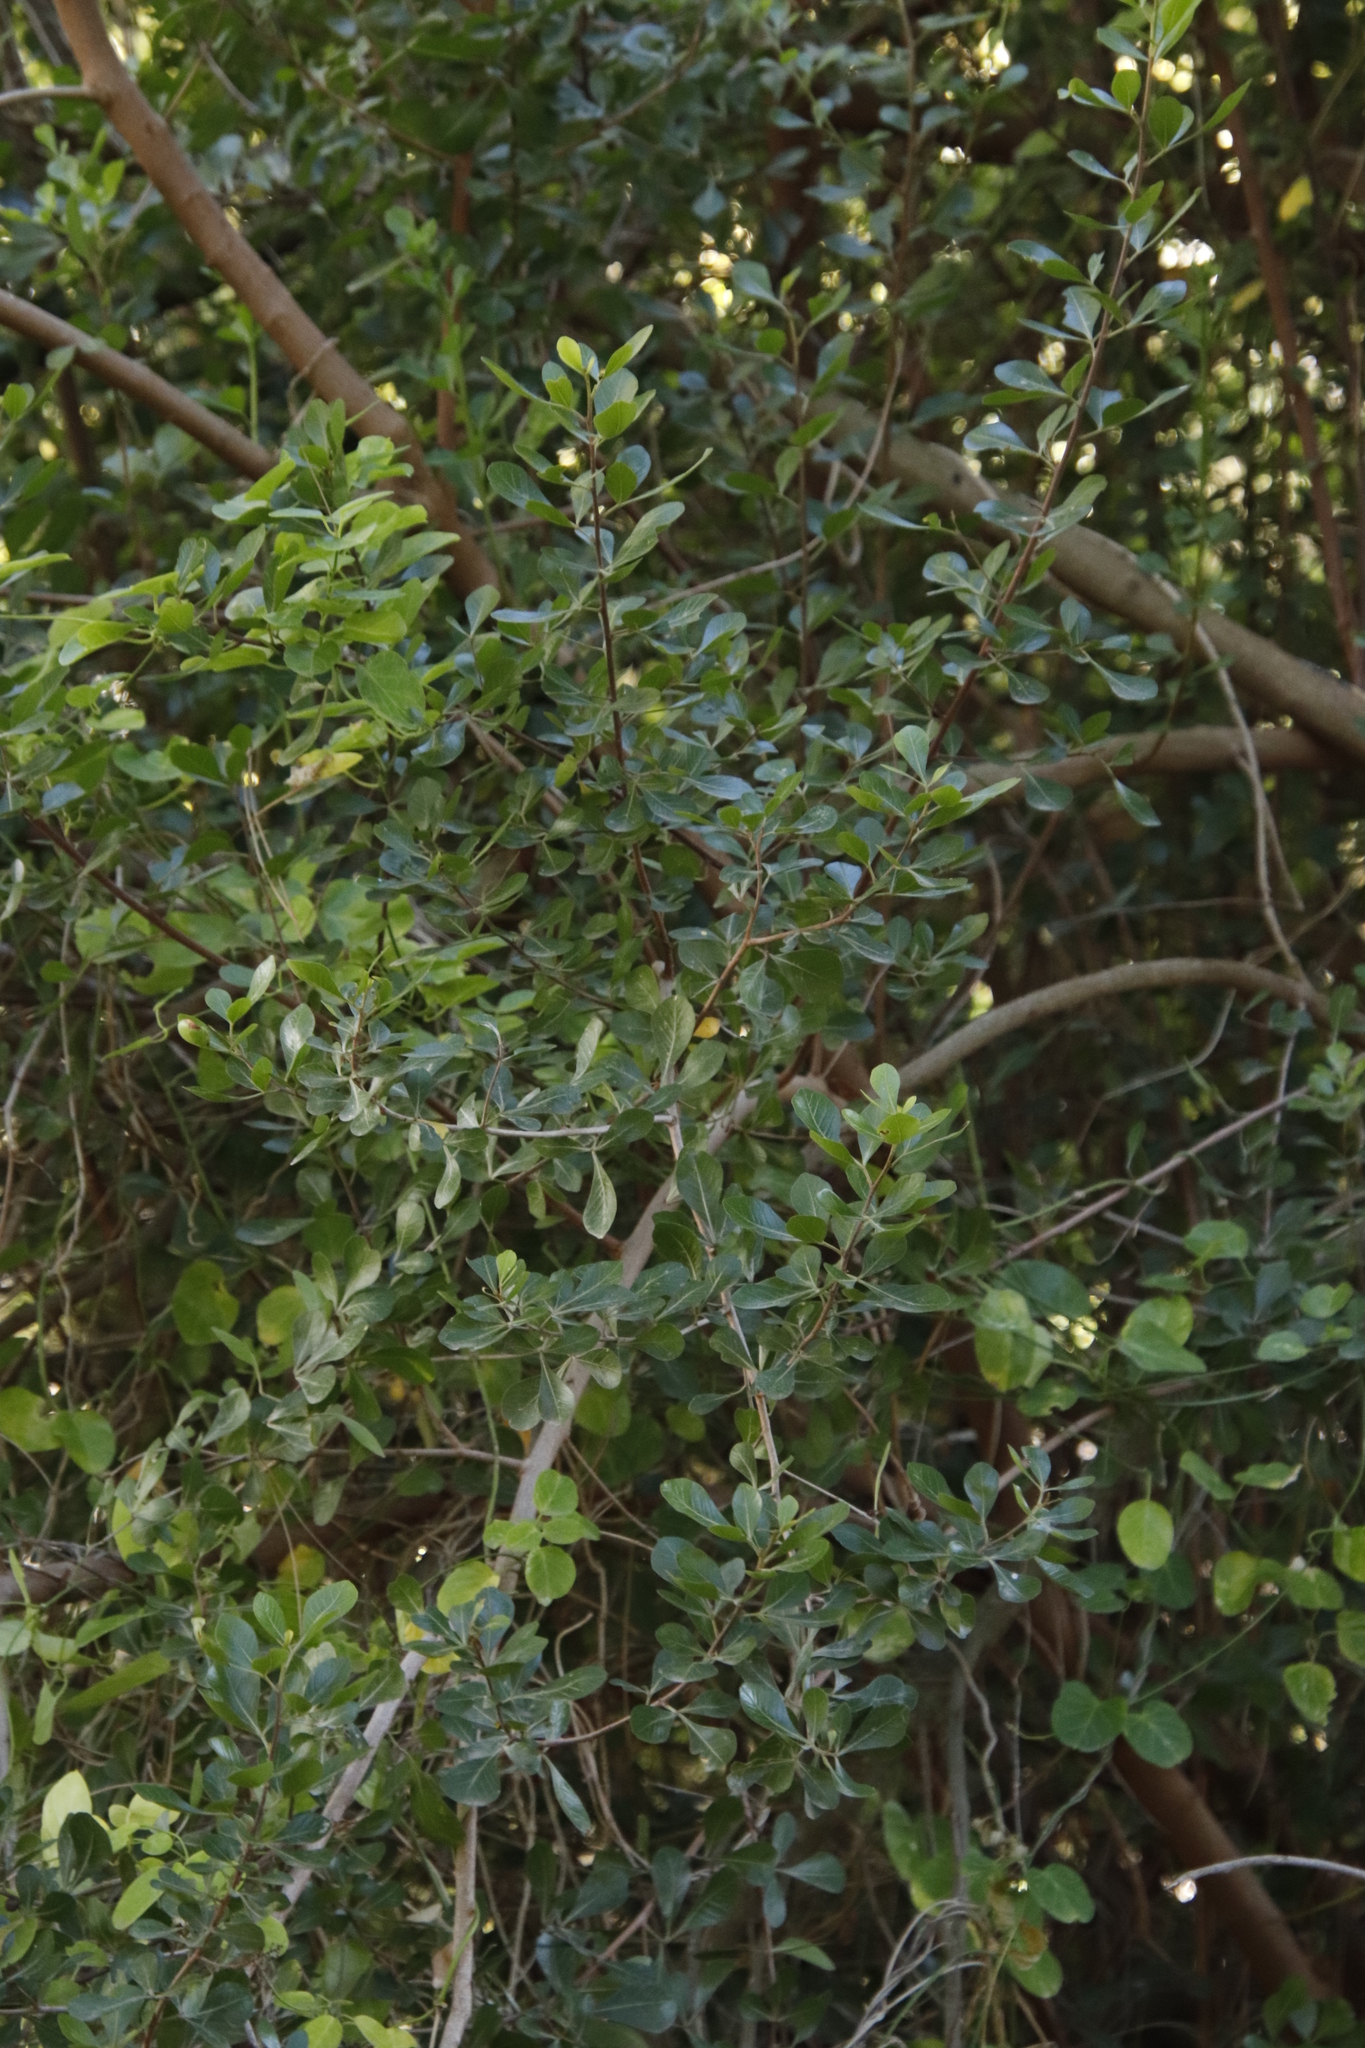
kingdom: Plantae
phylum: Tracheophyta
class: Magnoliopsida
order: Sapindales
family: Anacardiaceae
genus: Searsia
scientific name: Searsia lucida
